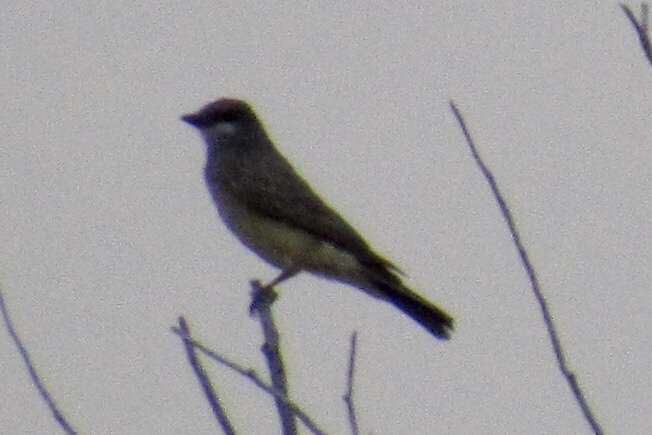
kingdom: Animalia
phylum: Chordata
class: Aves
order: Passeriformes
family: Tyrannidae
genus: Tyrannus
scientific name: Tyrannus vociferans
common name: Cassin's kingbird
